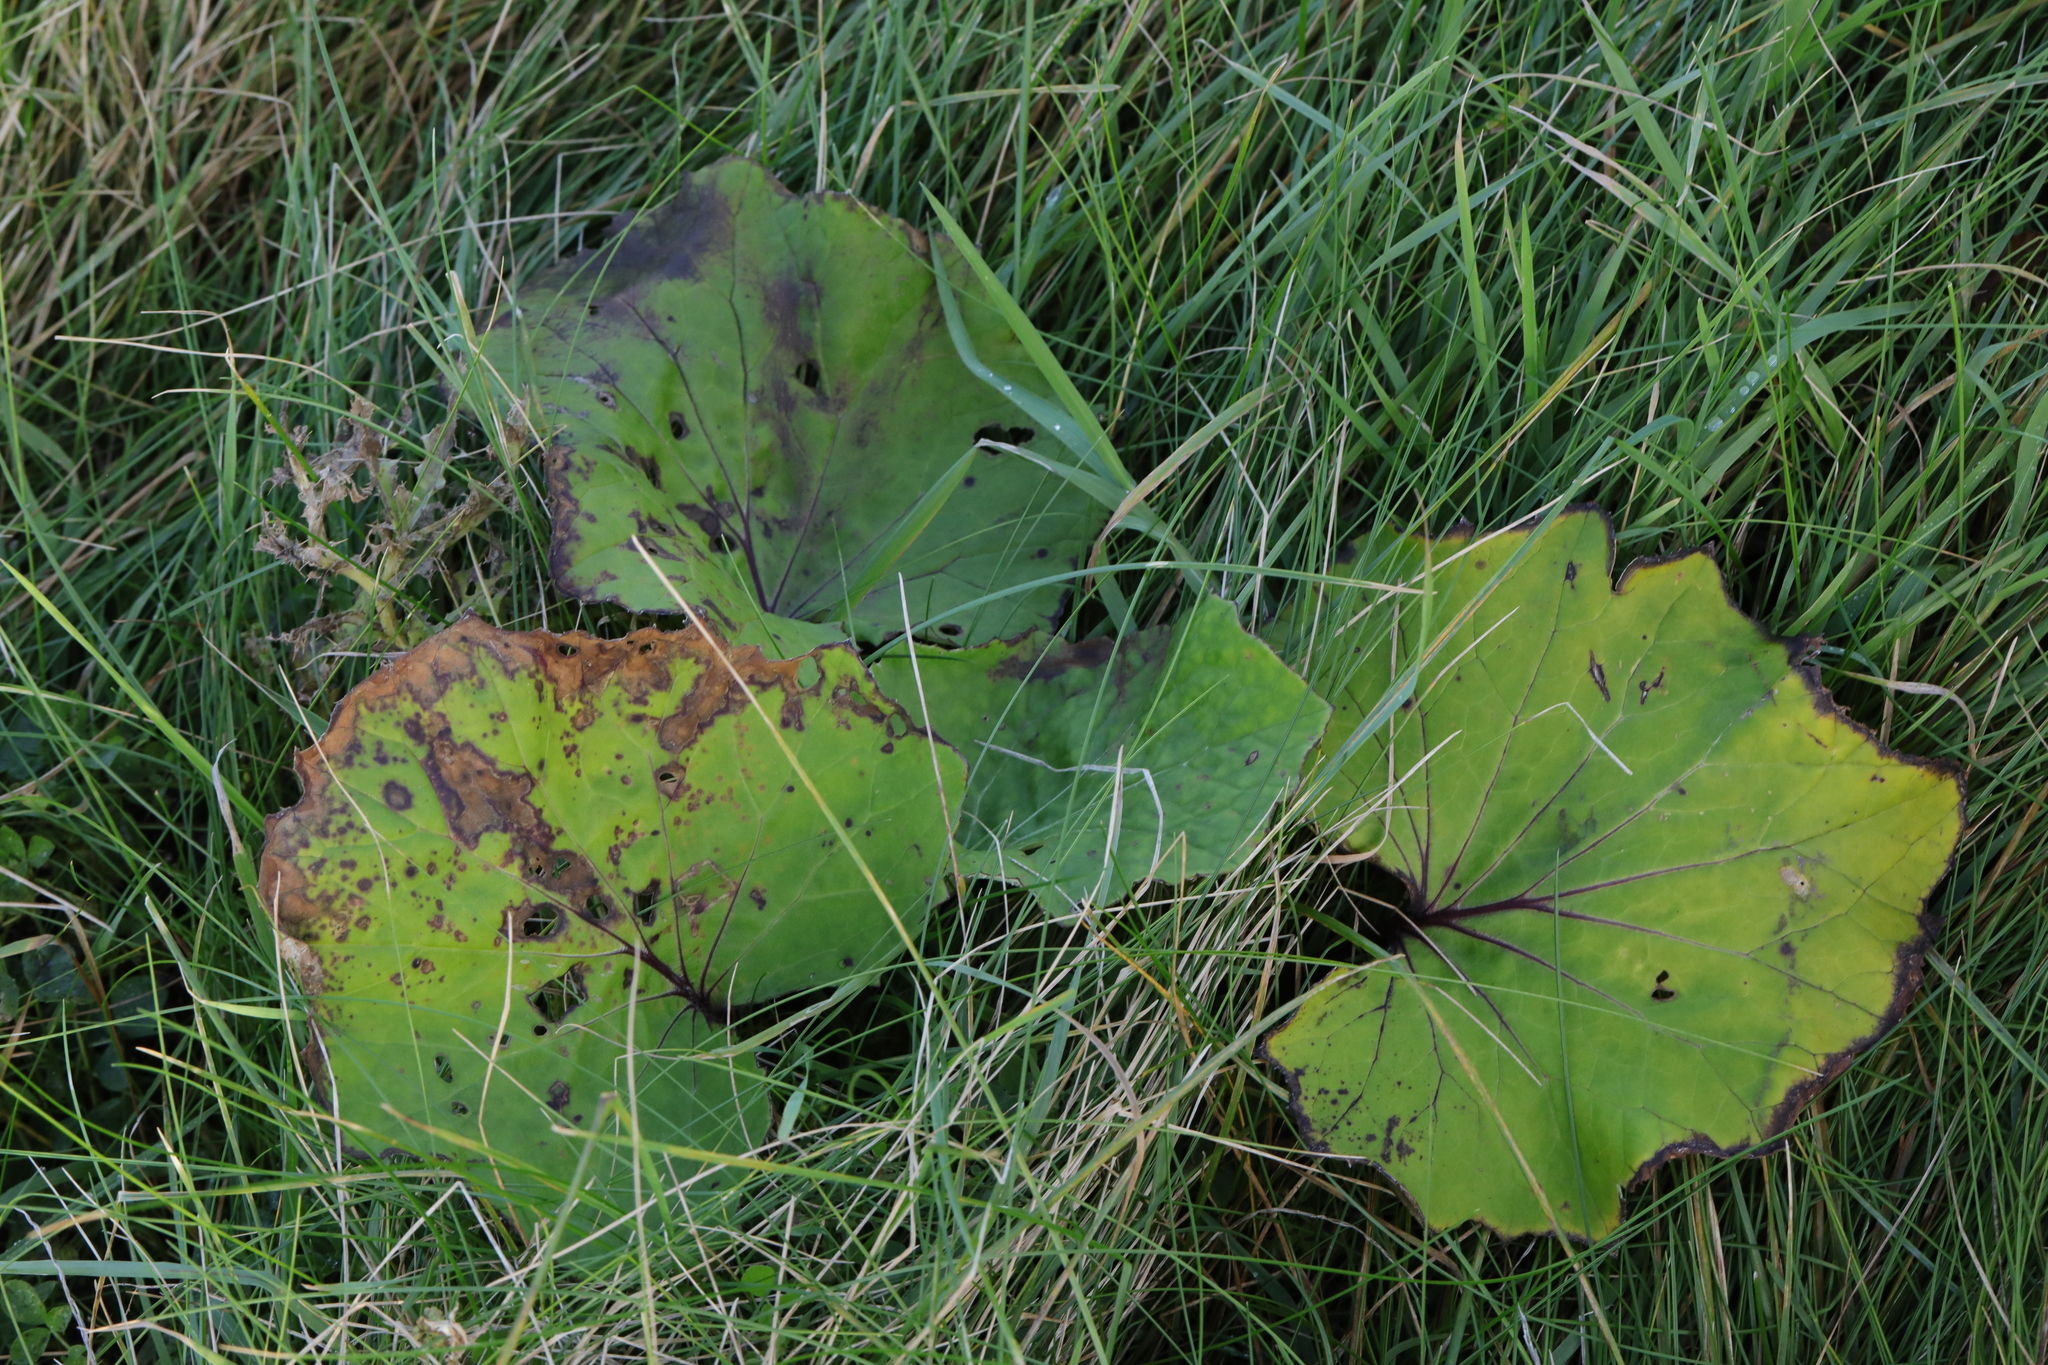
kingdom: Plantae
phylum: Tracheophyta
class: Magnoliopsida
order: Asterales
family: Asteraceae
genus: Tussilago
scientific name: Tussilago farfara
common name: Coltsfoot
